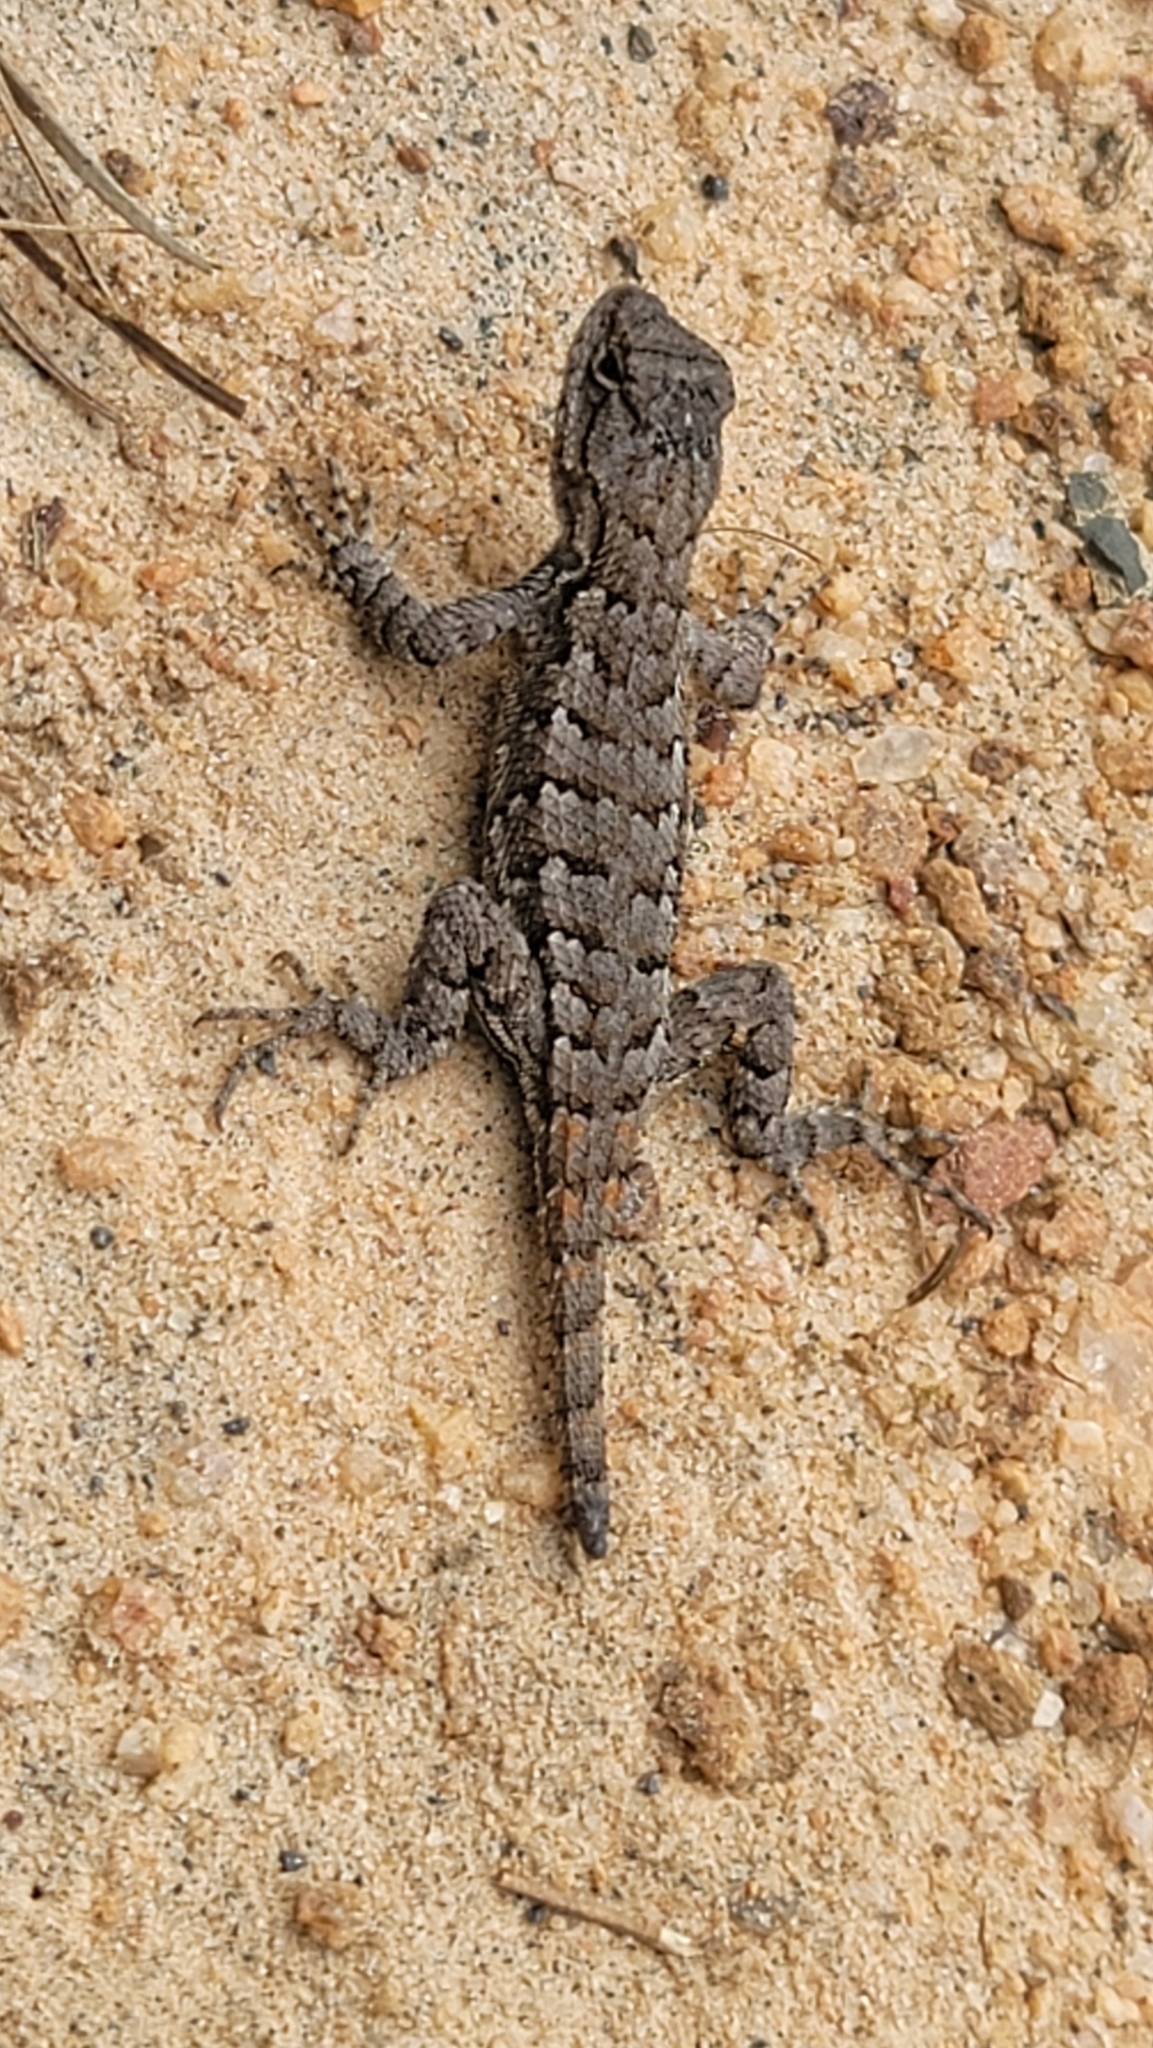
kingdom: Animalia
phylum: Chordata
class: Squamata
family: Phrynosomatidae
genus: Sceloporus
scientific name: Sceloporus undulatus
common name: Eastern fence lizard
